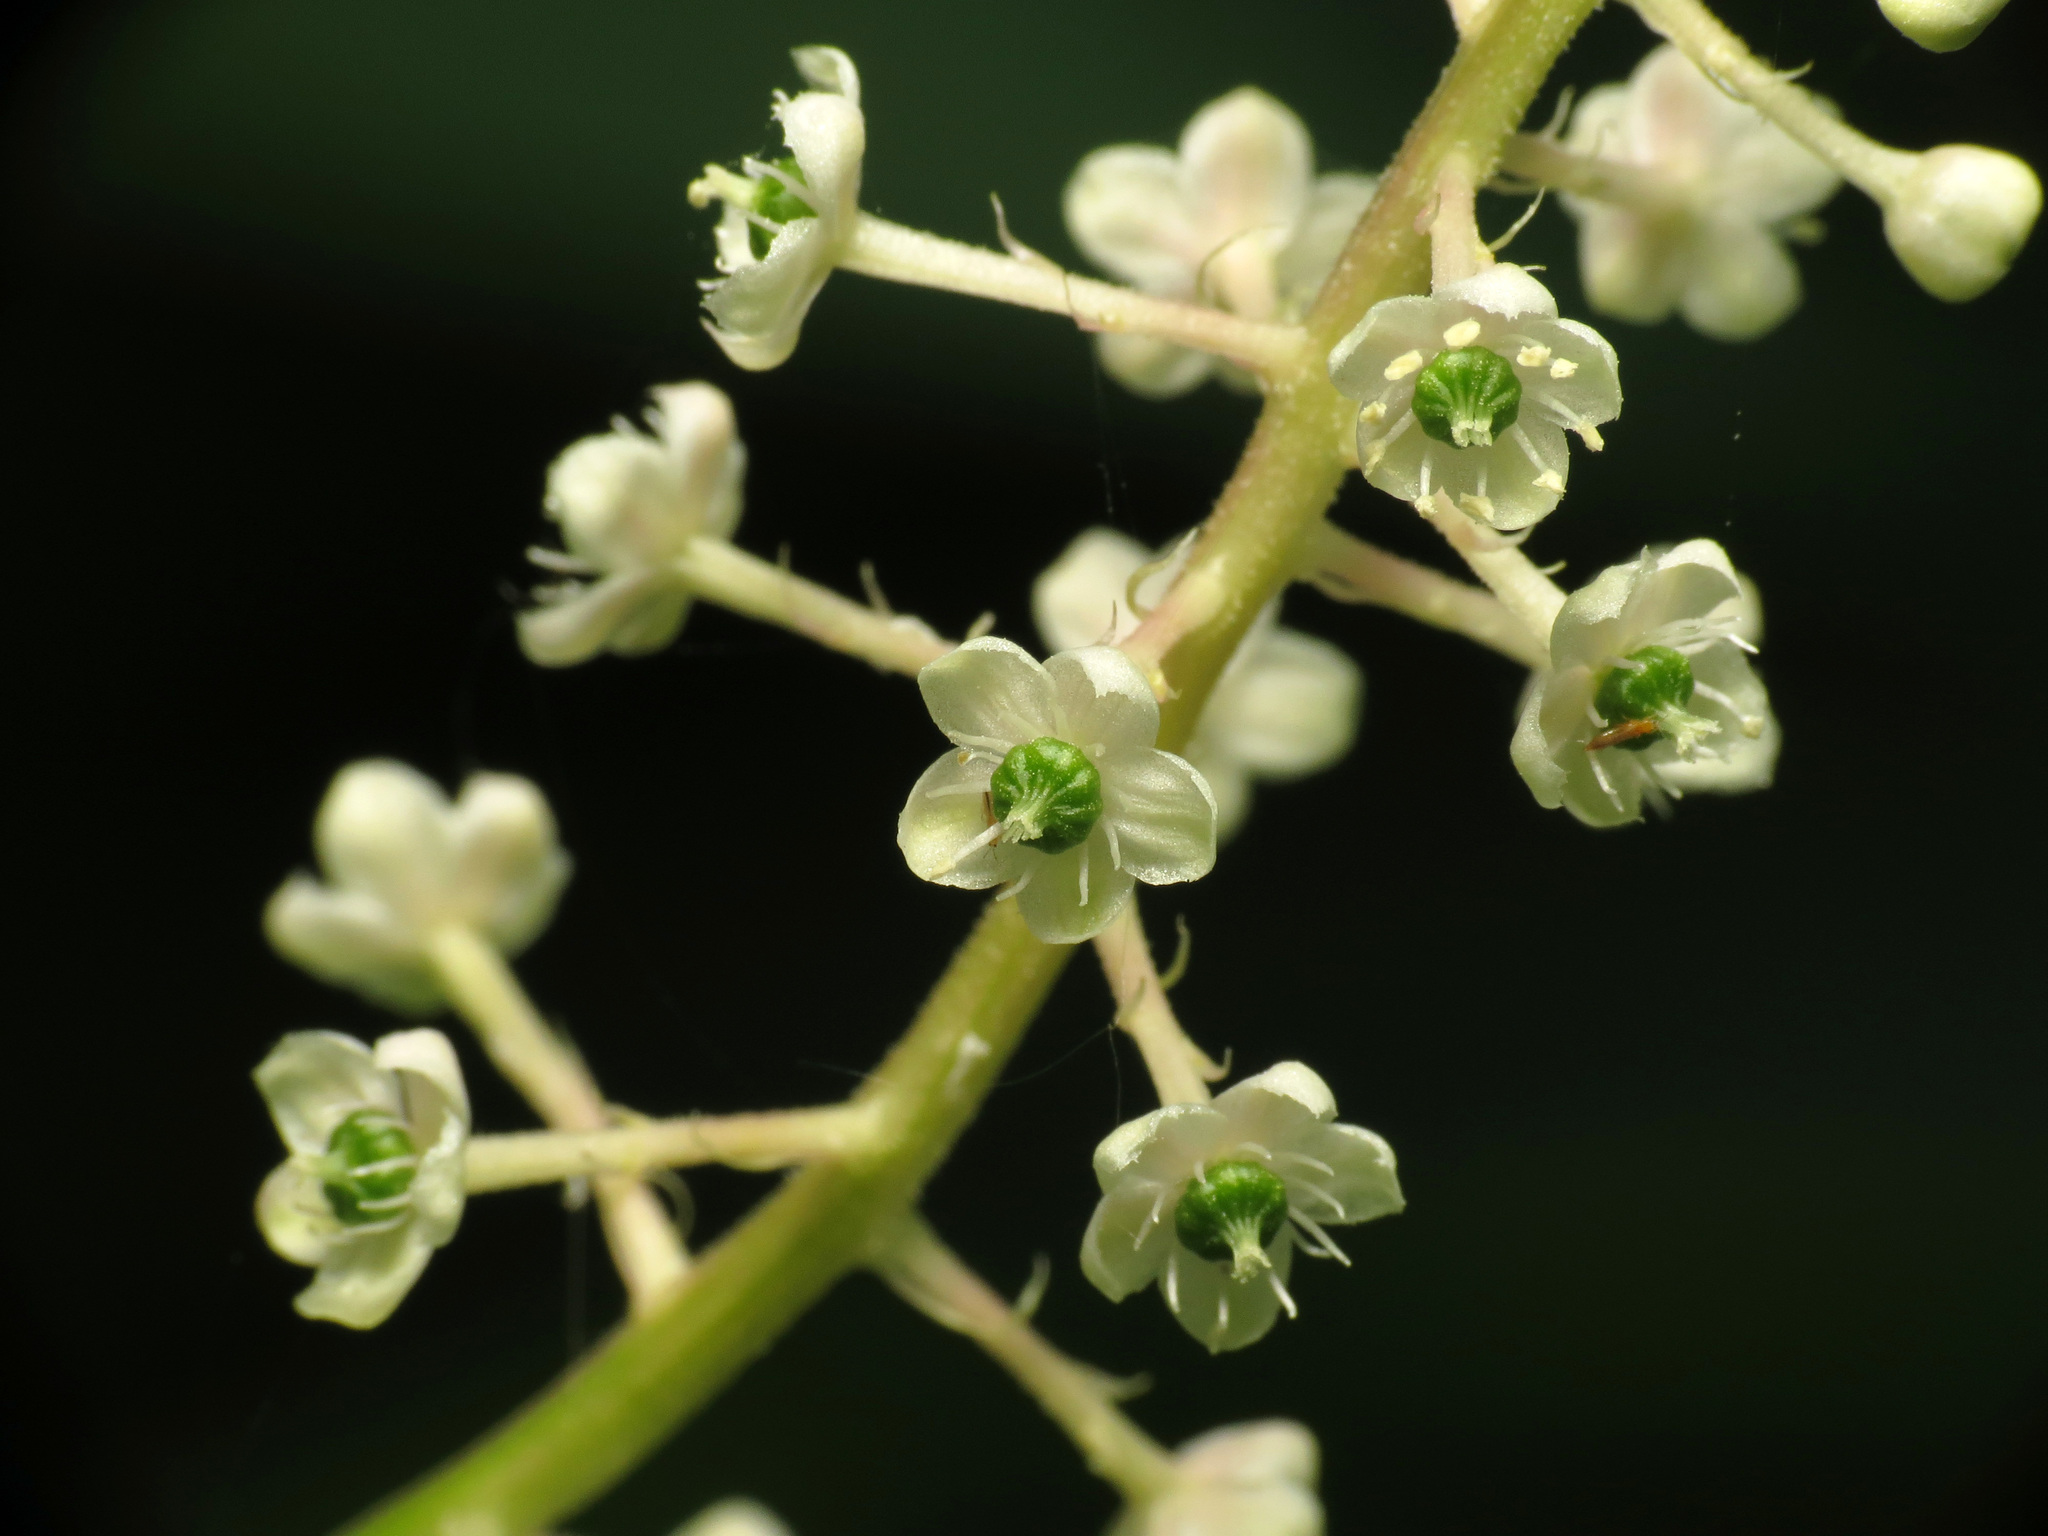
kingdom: Plantae
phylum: Tracheophyta
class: Magnoliopsida
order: Caryophyllales
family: Phytolaccaceae
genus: Phytolacca
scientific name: Phytolacca americana
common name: American pokeweed
